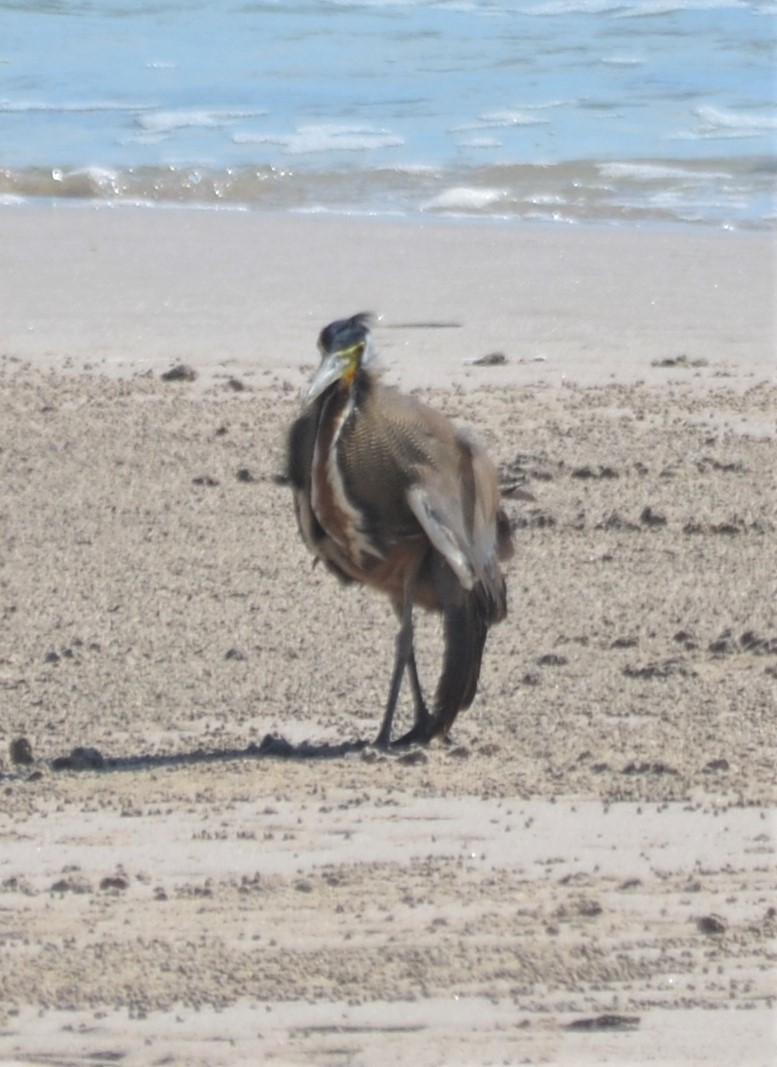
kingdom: Animalia
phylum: Chordata
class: Aves
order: Pelecaniformes
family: Ardeidae
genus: Tigrisoma
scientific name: Tigrisoma mexicanum
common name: Bare-throated tiger-heron
